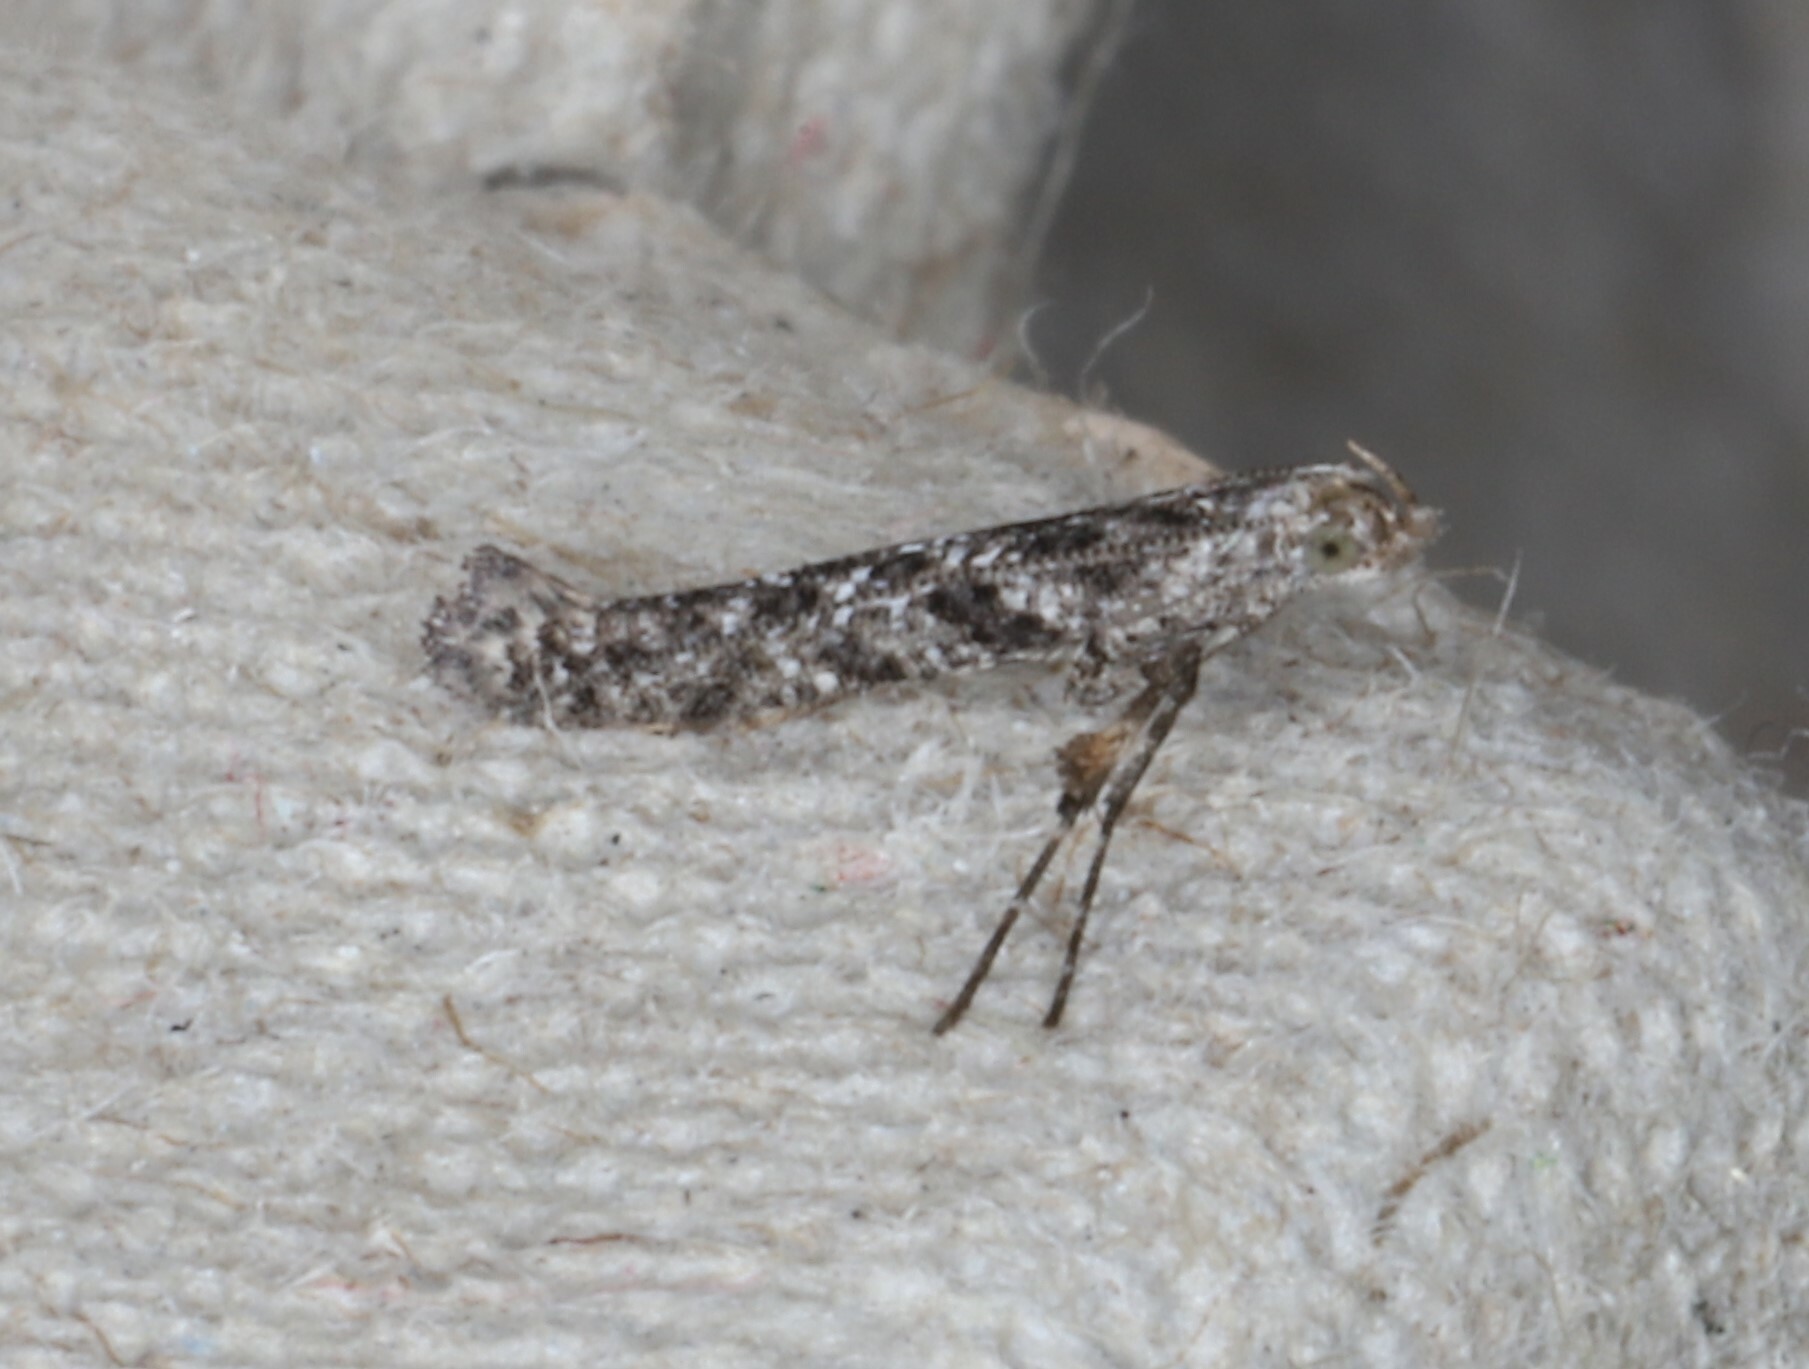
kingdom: Animalia
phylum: Arthropoda
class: Insecta
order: Lepidoptera
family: Gracillariidae
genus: Caloptilia
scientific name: Caloptilia fraxinella
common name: Ash leaf cone roller
